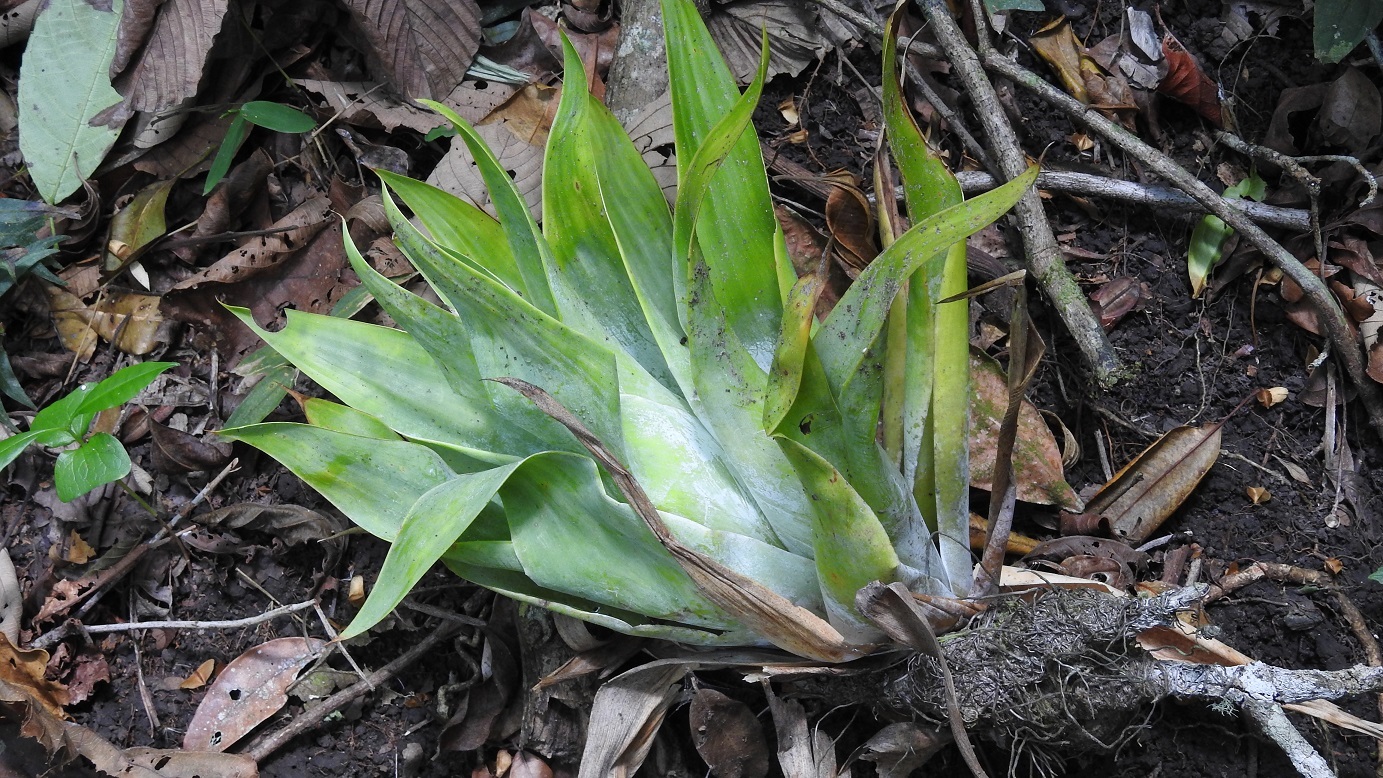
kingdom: Plantae
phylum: Tracheophyta
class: Liliopsida
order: Poales
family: Bromeliaceae
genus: Catopsis
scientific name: Catopsis occulta
